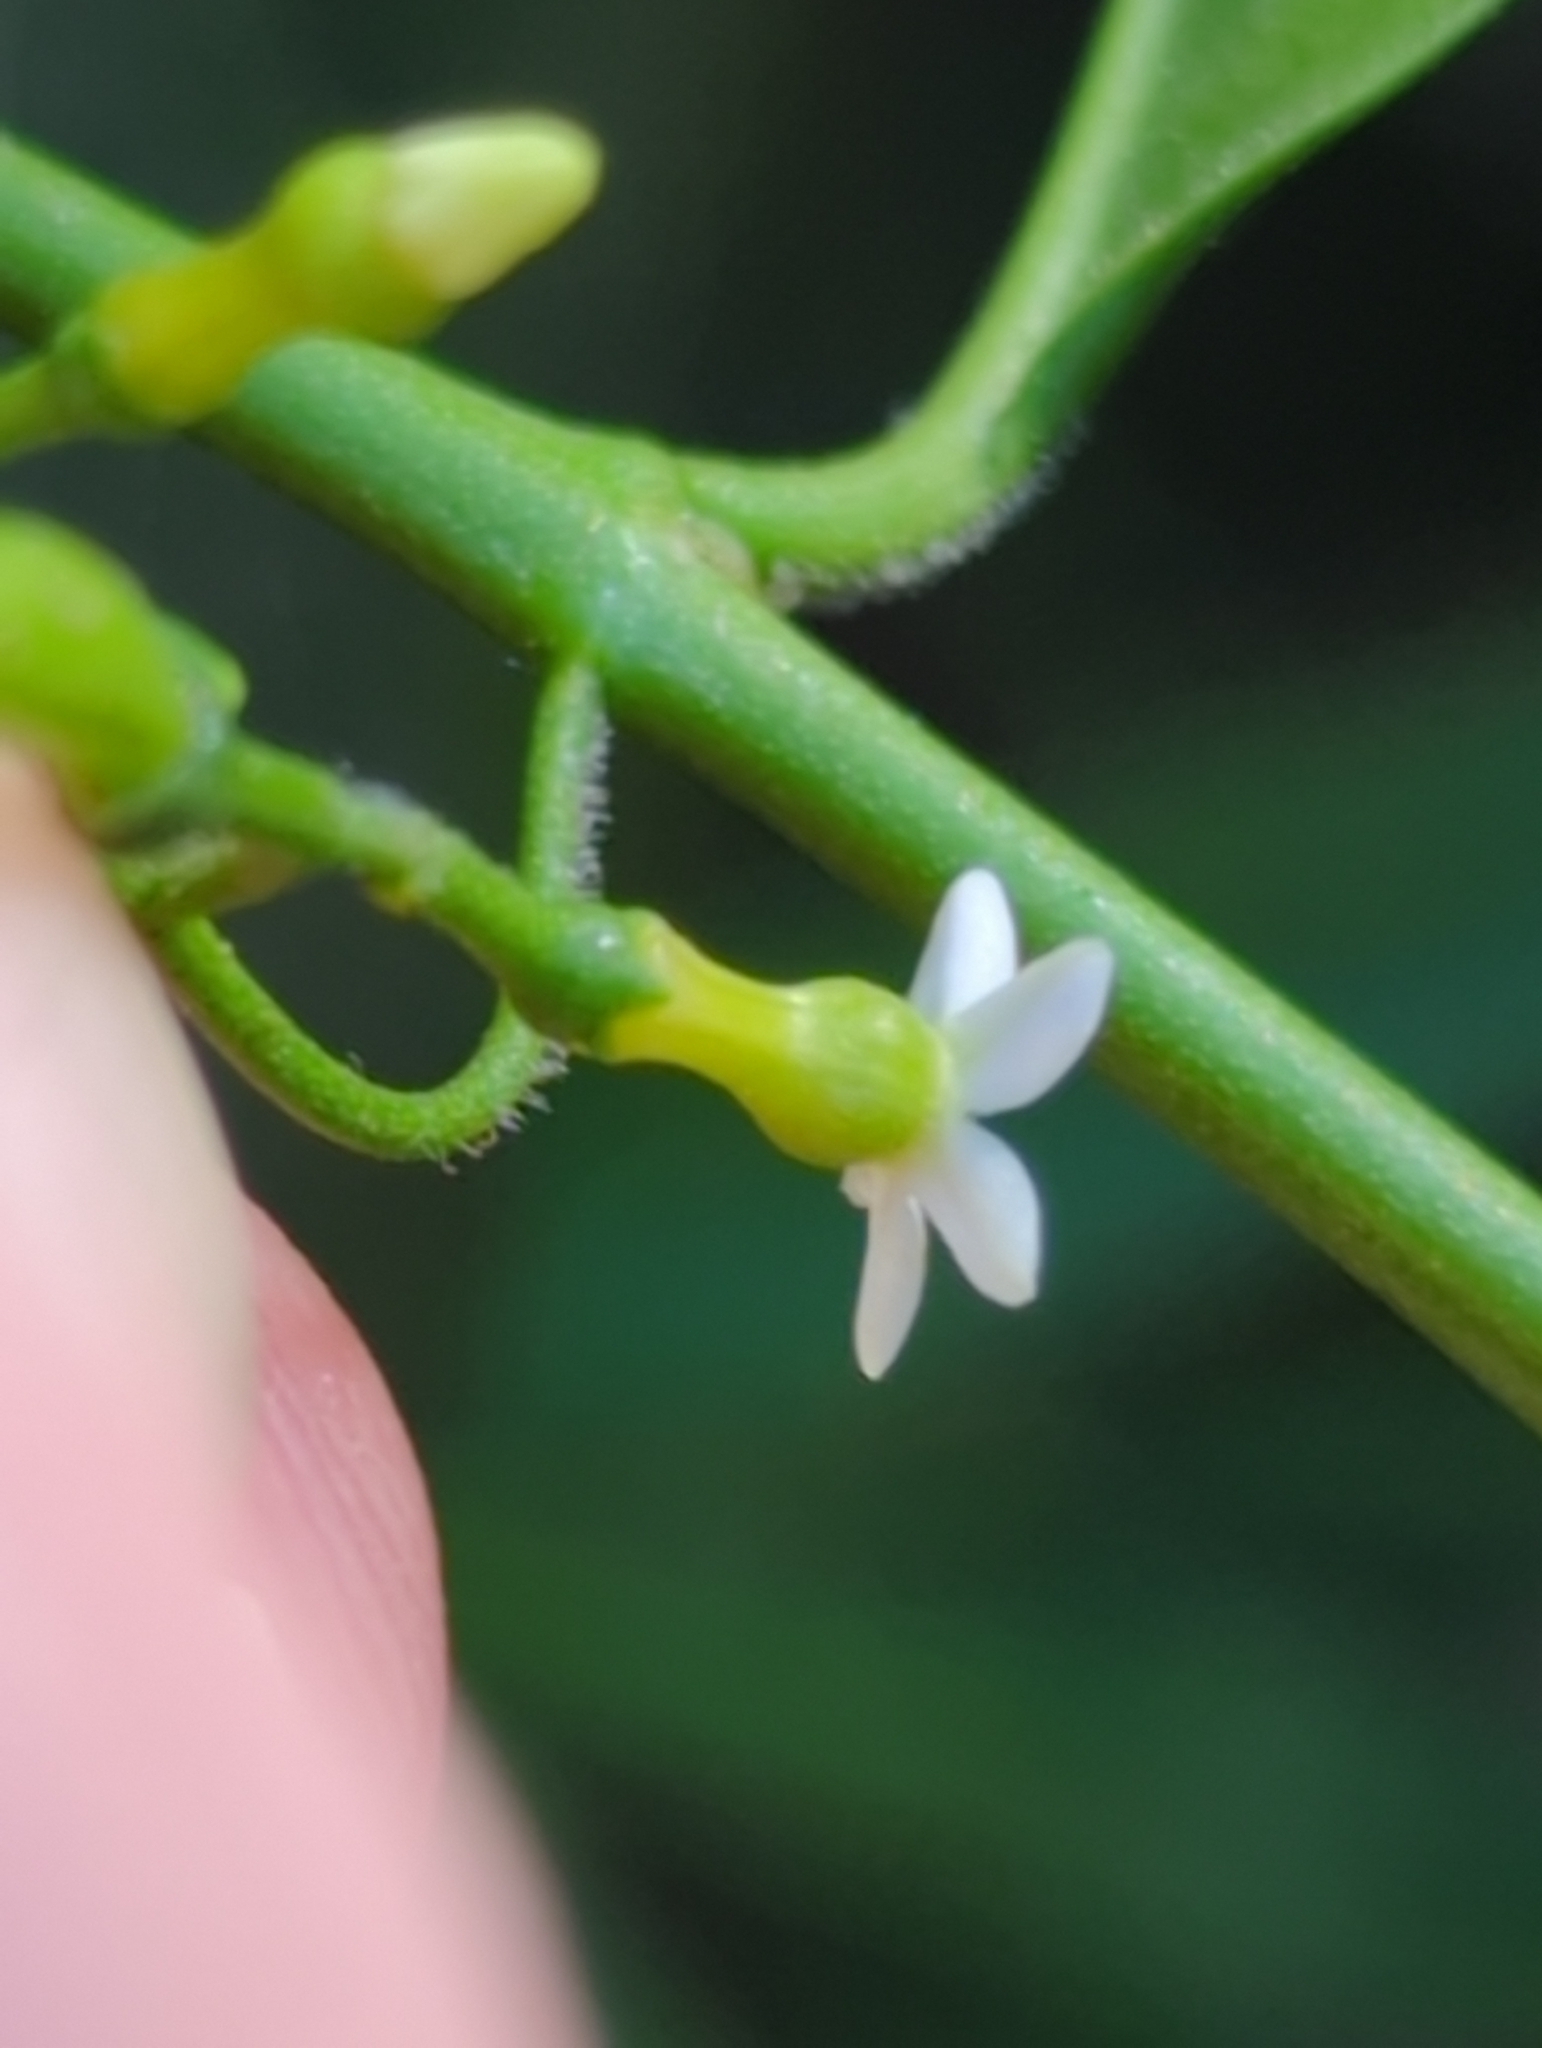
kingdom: Plantae
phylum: Tracheophyta
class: Magnoliopsida
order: Gentianales
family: Apocynaceae
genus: Vallesia
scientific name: Vallesia glabra
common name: Pearlberry
